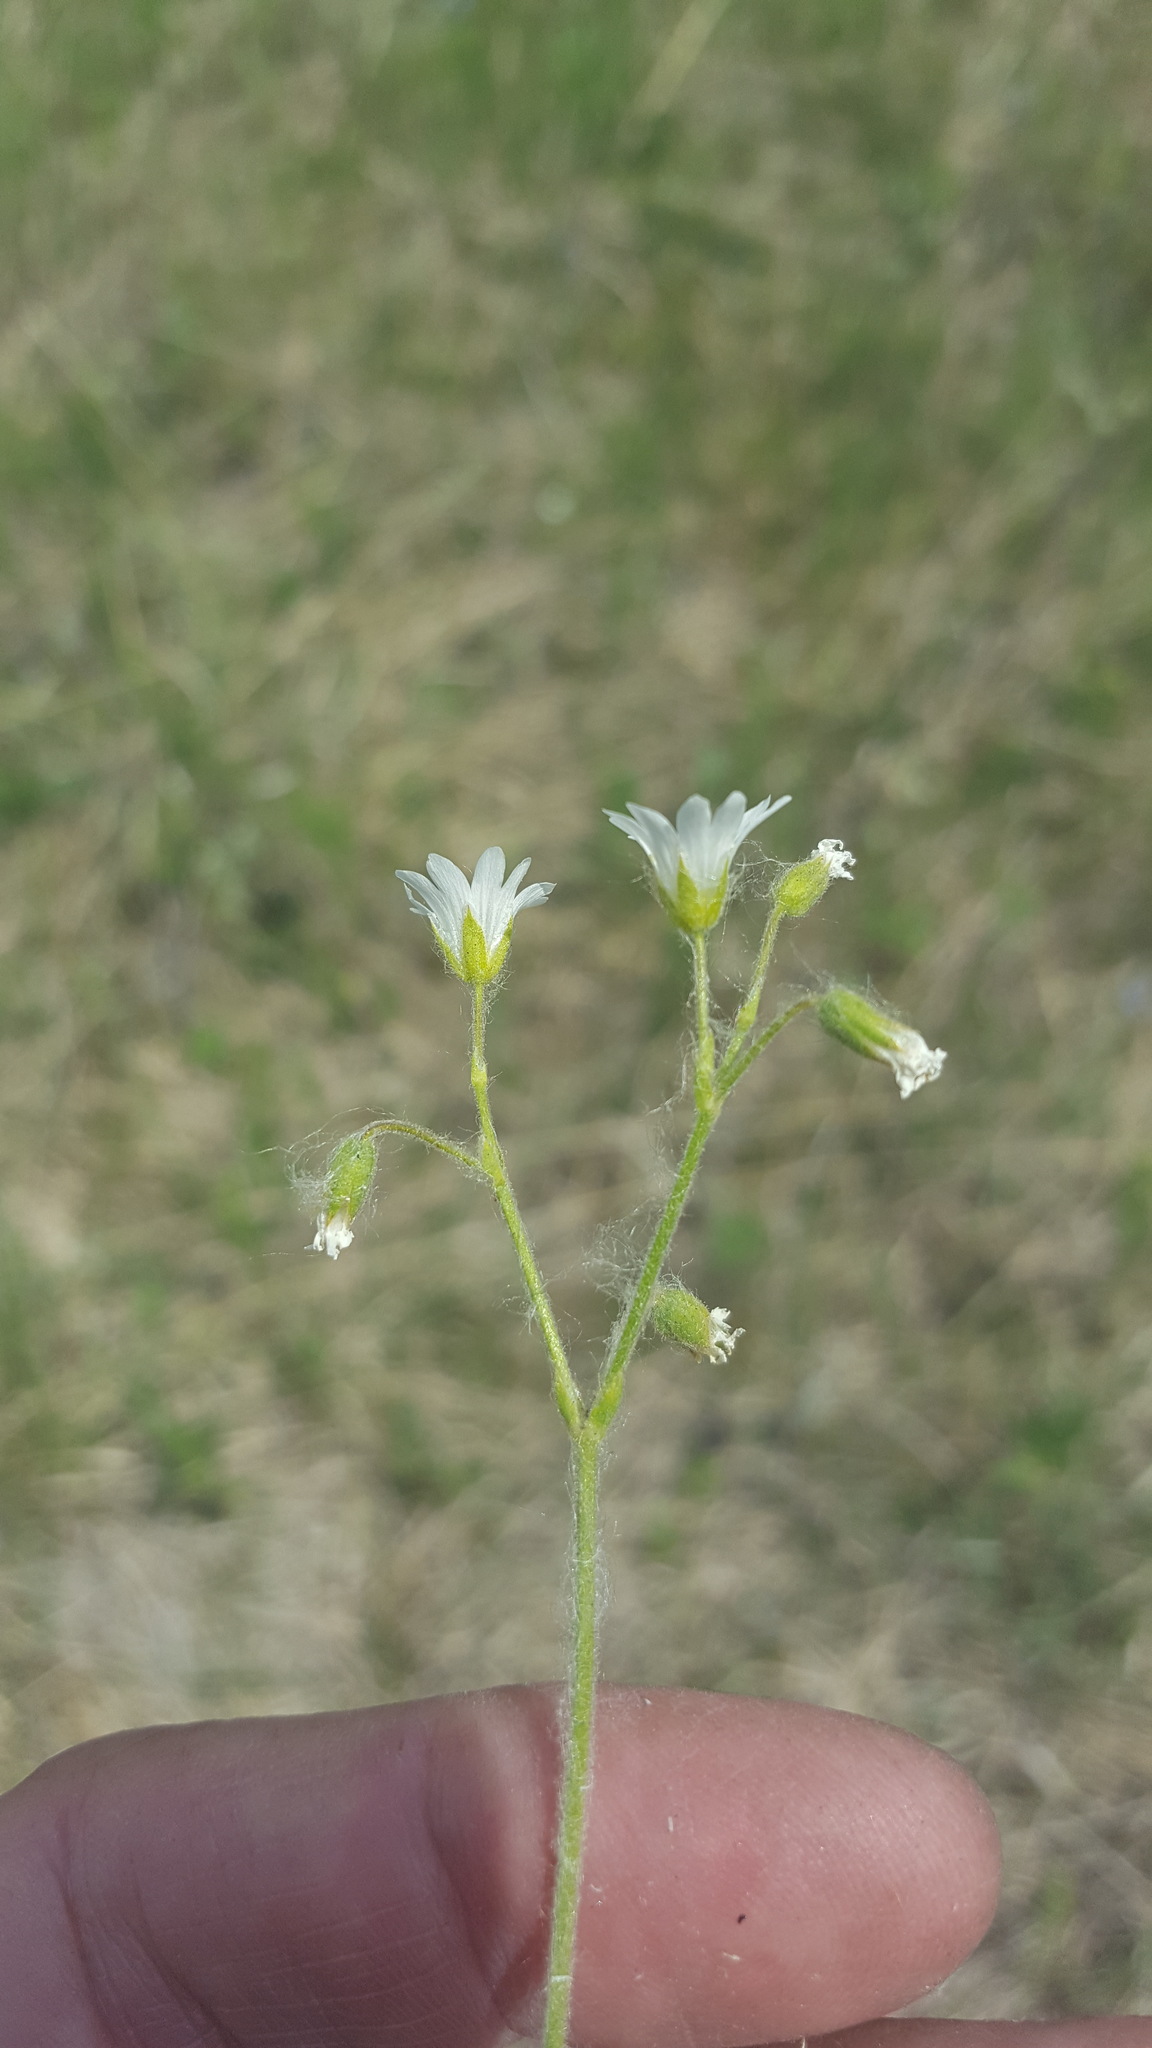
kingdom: Plantae
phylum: Tracheophyta
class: Magnoliopsida
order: Caryophyllales
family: Caryophyllaceae
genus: Cerastium
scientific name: Cerastium arvense
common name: Field mouse-ear
